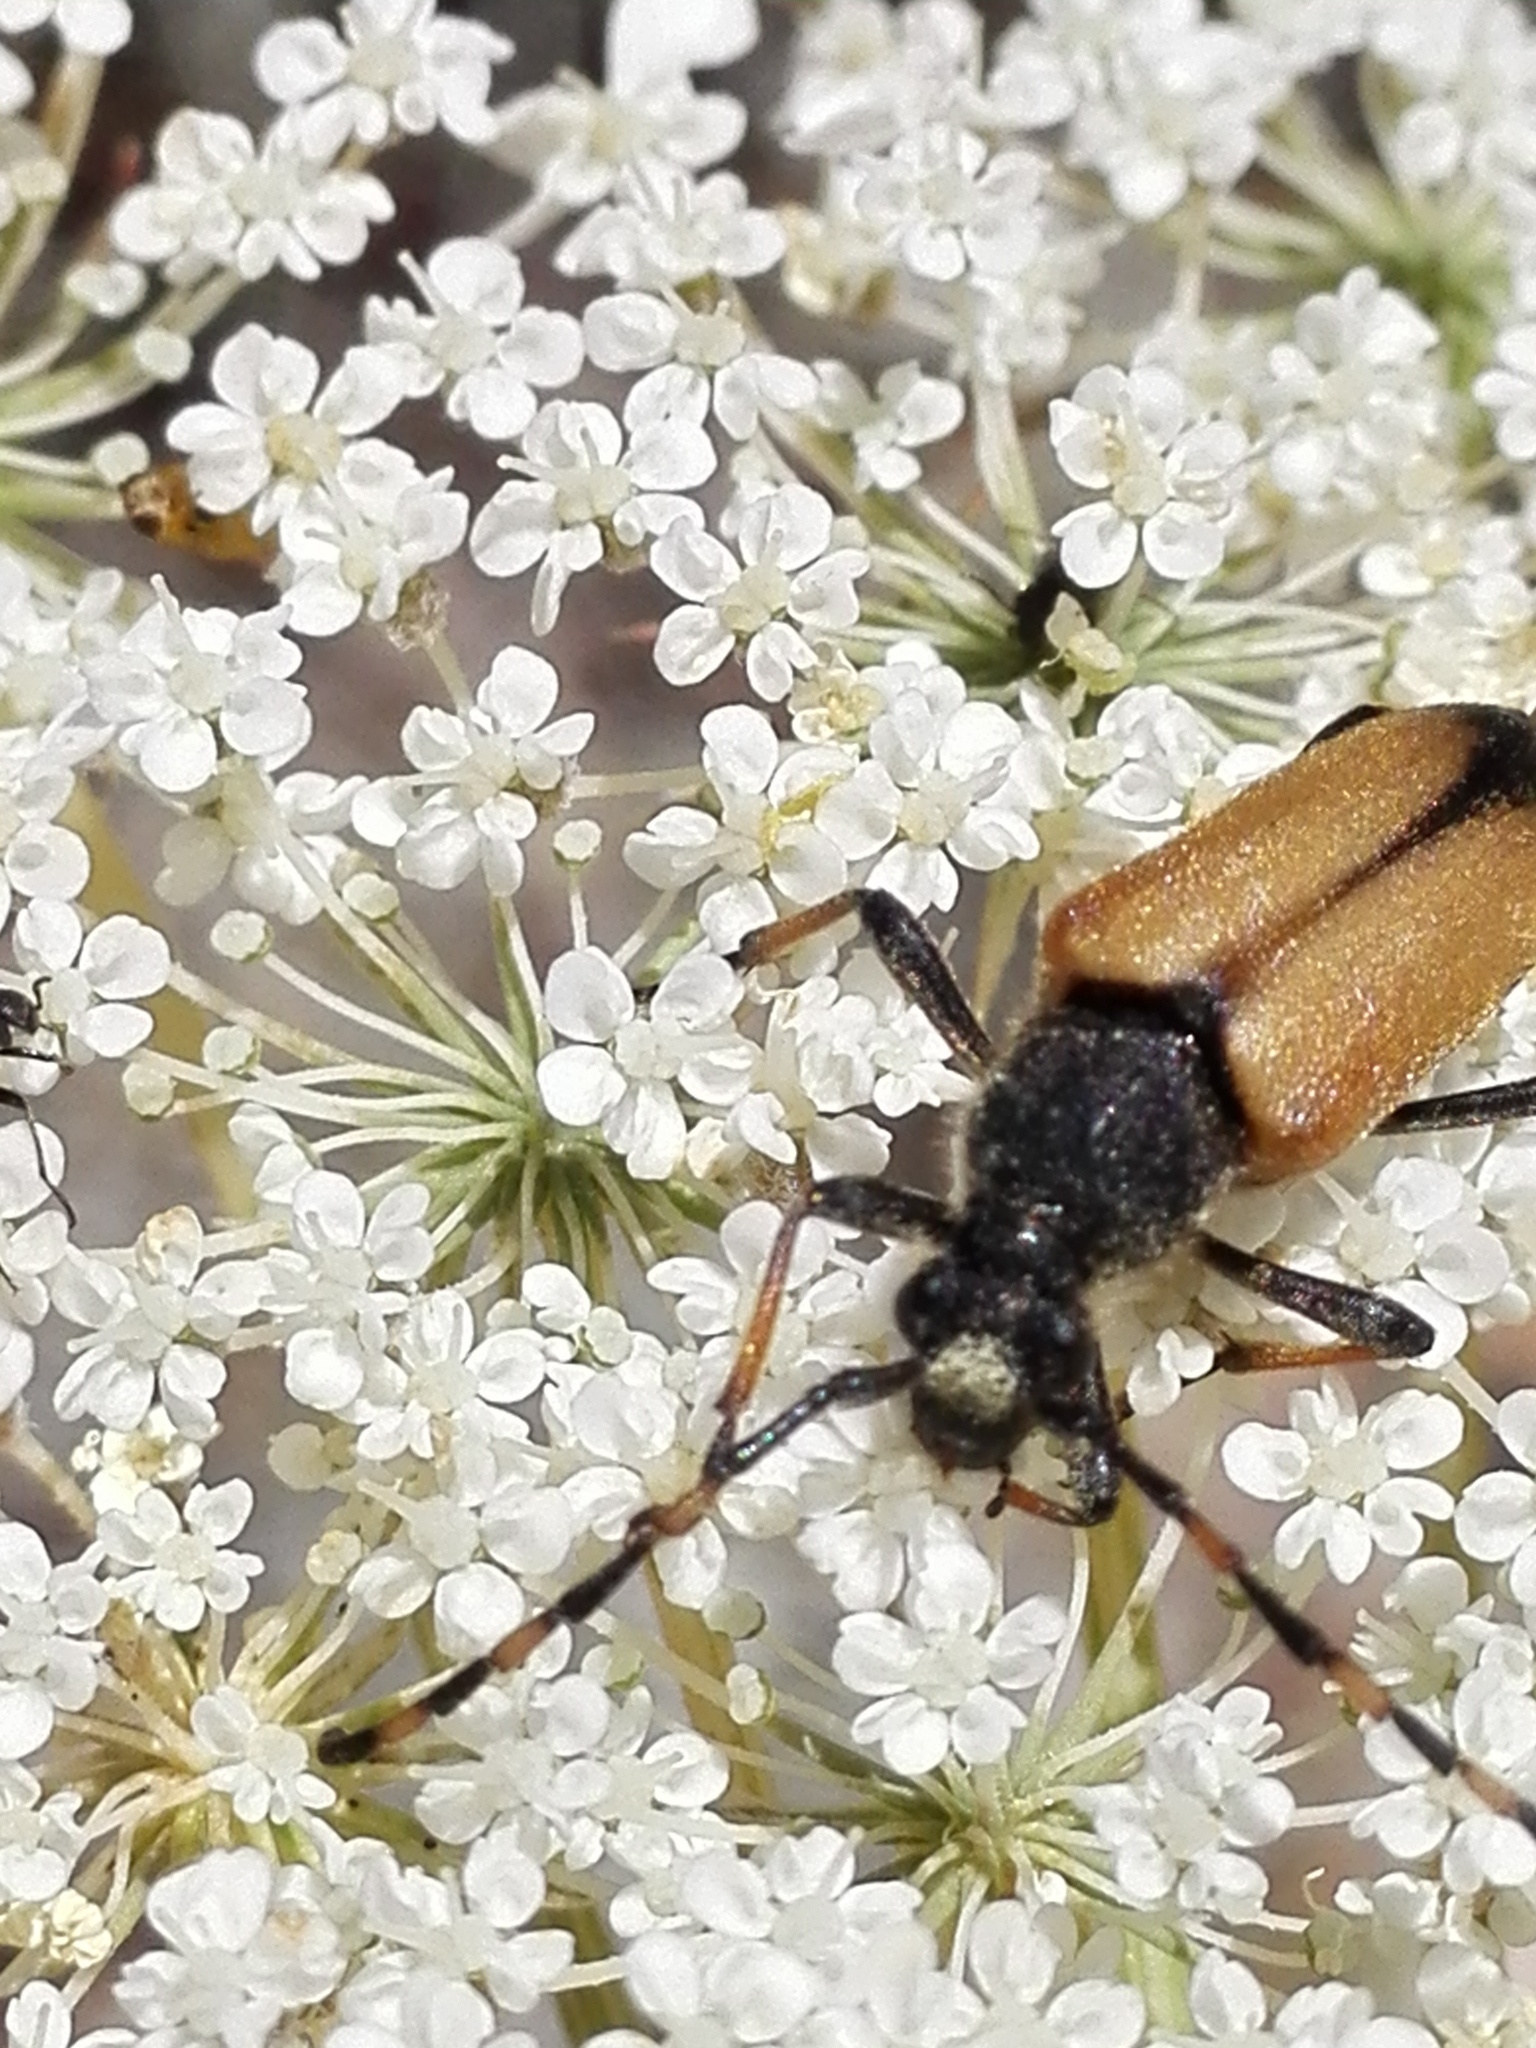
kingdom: Animalia
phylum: Arthropoda
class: Insecta
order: Coleoptera
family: Cerambycidae
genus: Stictoleptura
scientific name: Stictoleptura otini
